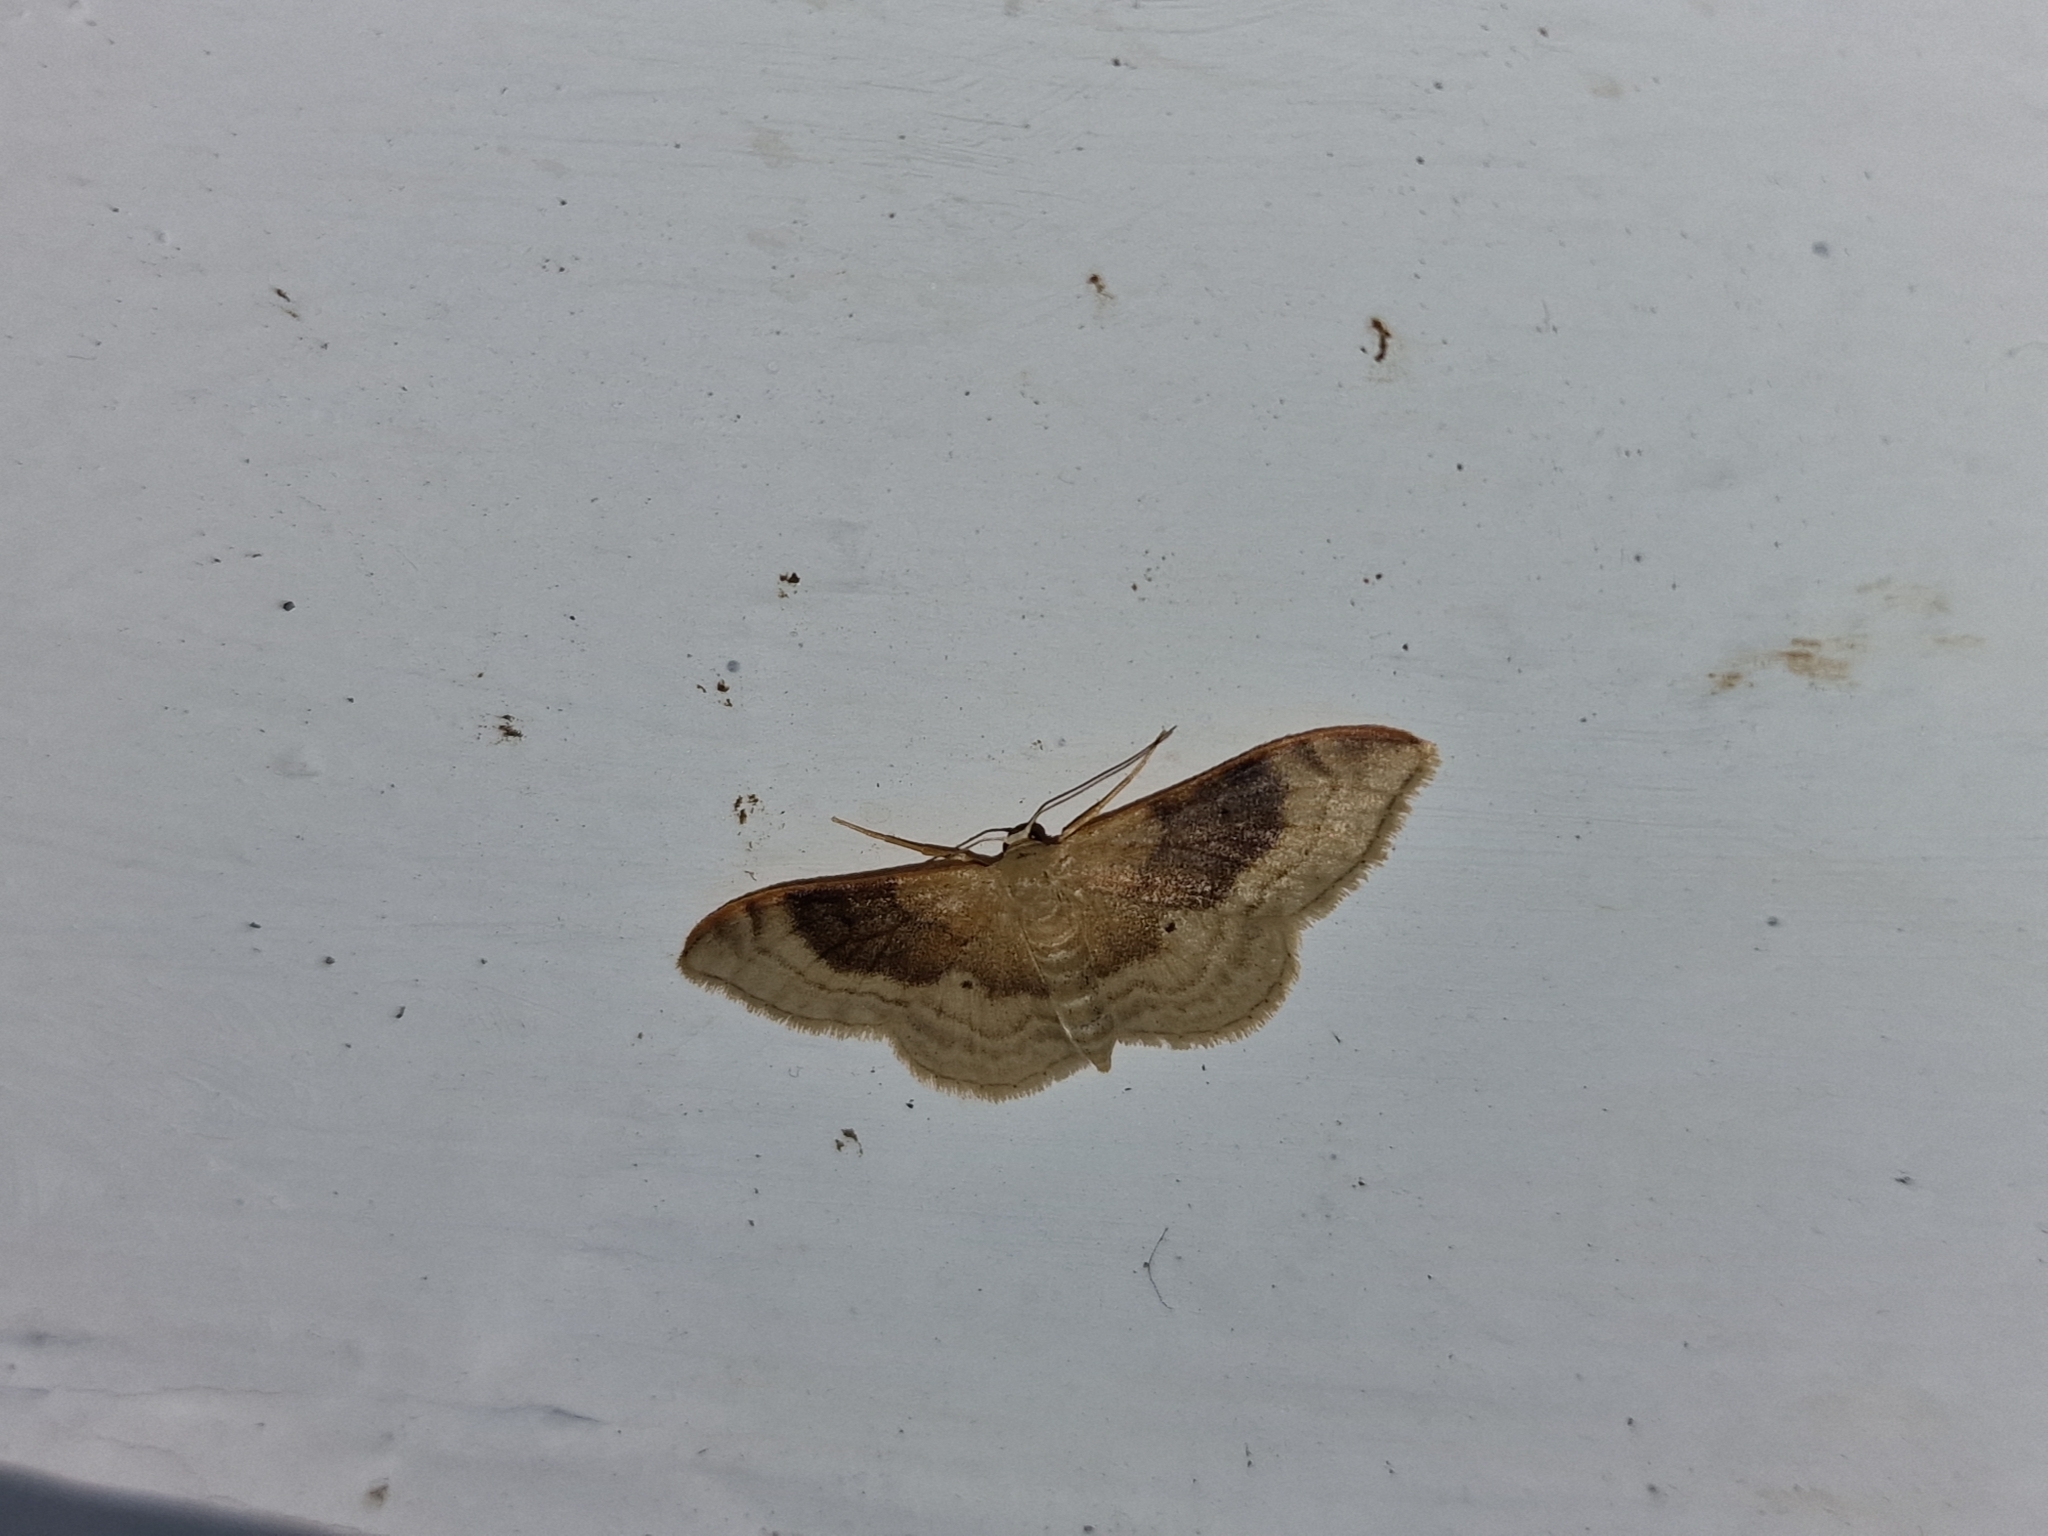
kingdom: Animalia
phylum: Arthropoda
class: Insecta
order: Lepidoptera
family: Geometridae
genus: Idaea
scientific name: Idaea degeneraria
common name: Portland ribbon wave
